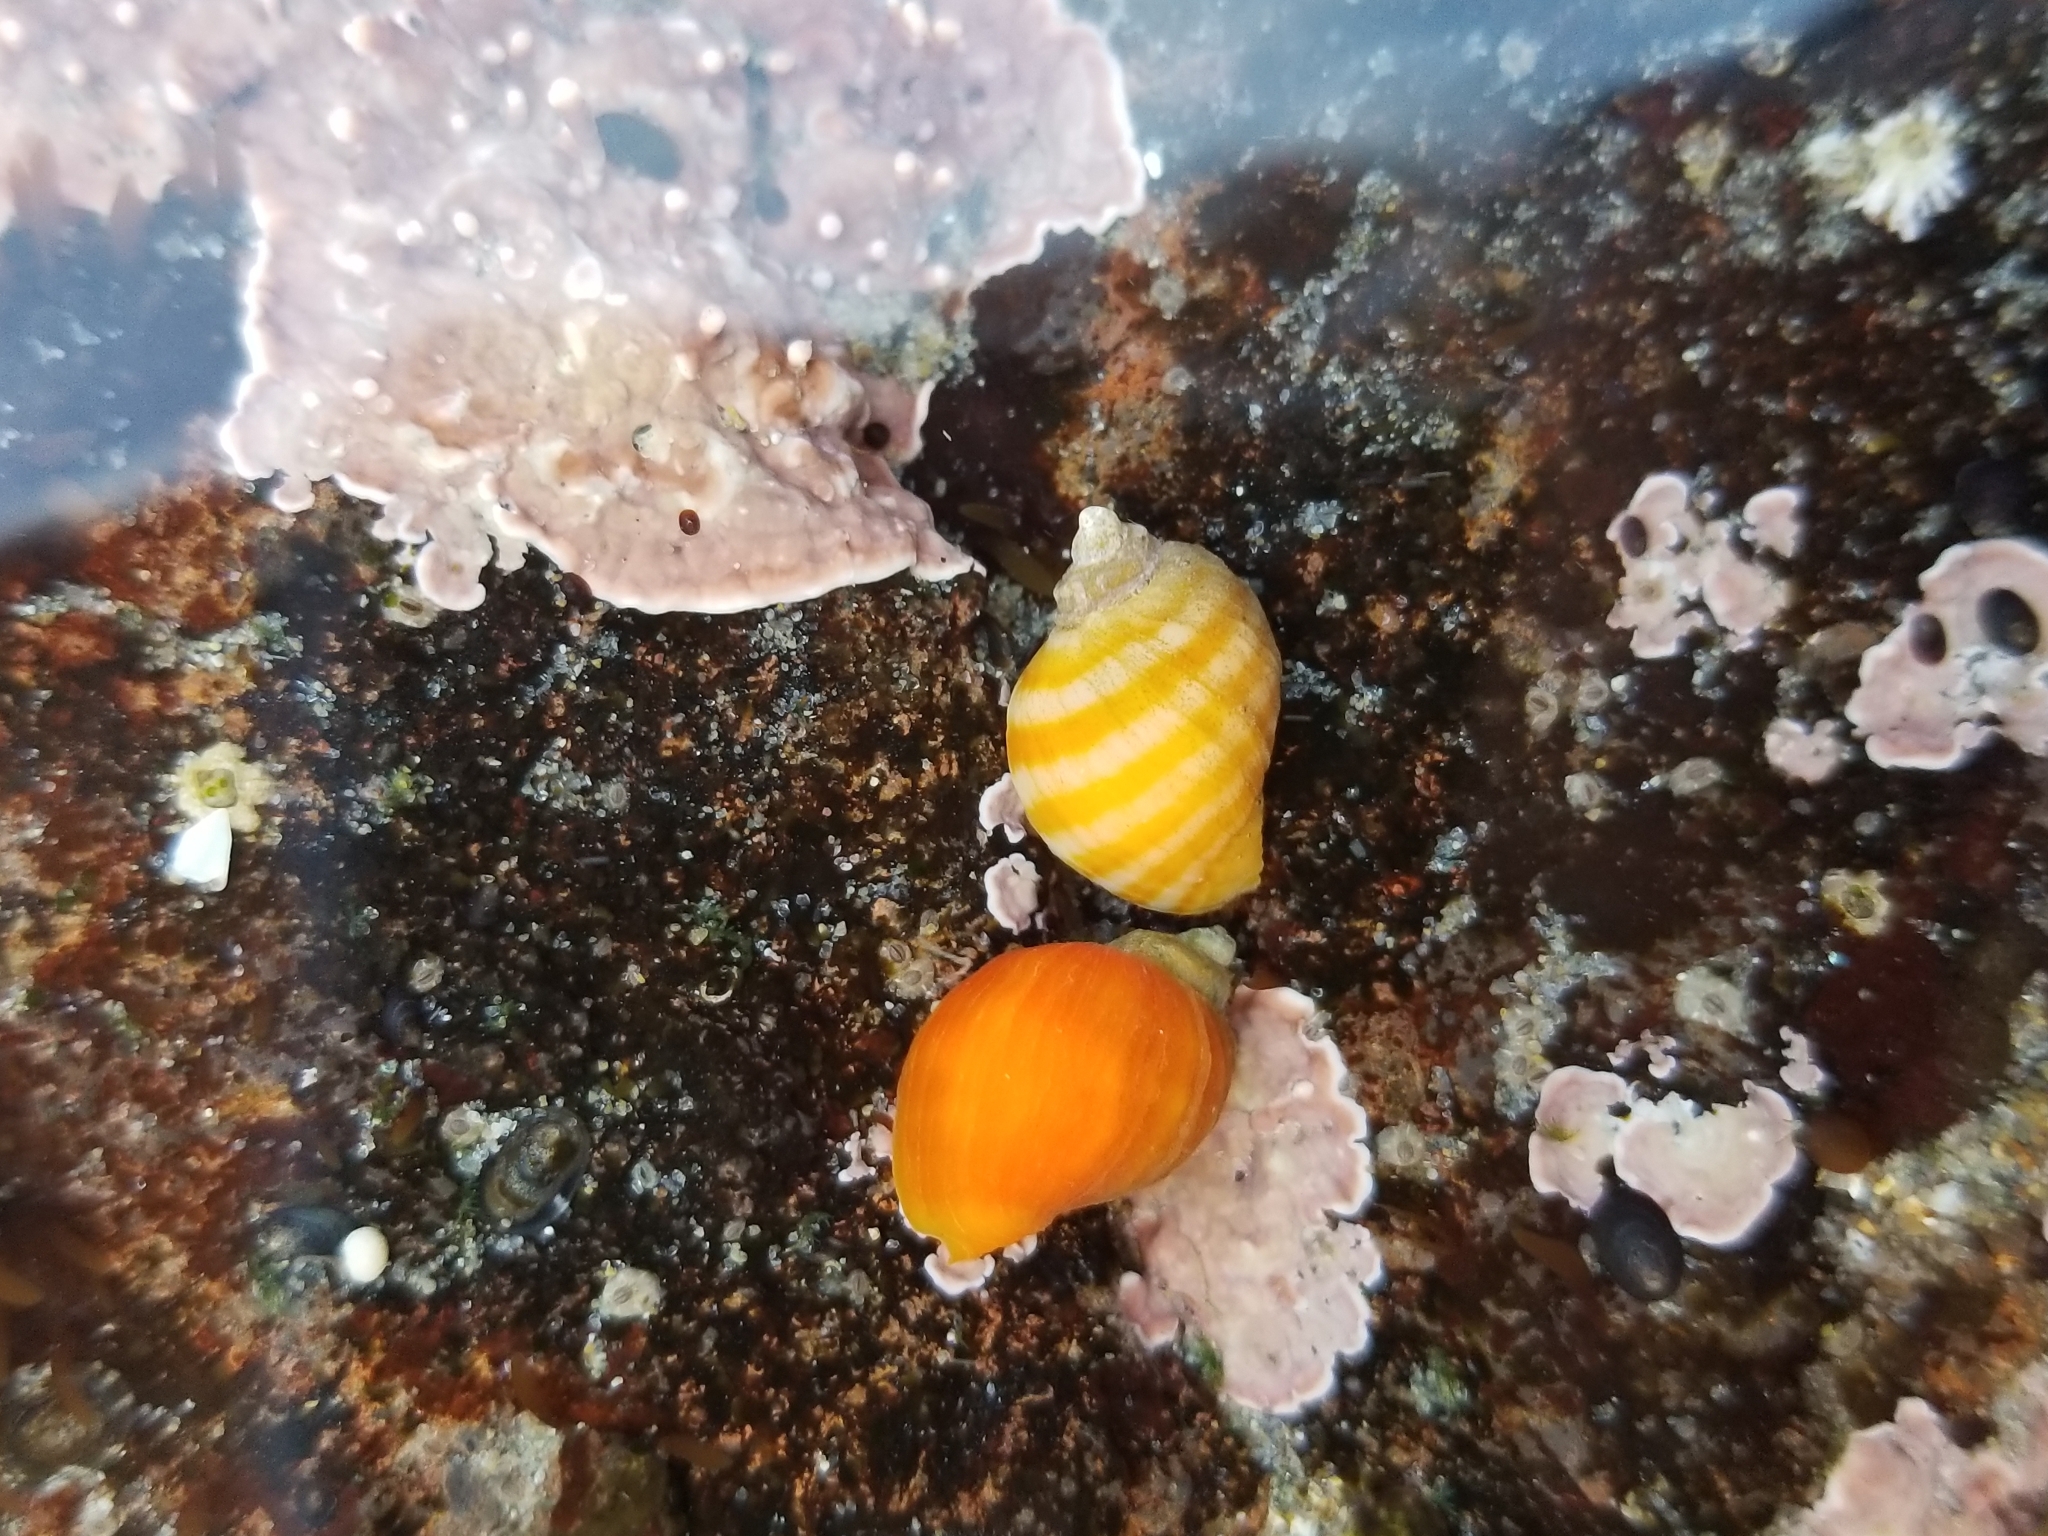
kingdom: Animalia
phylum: Mollusca
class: Gastropoda
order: Neogastropoda
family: Muricidae
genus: Nucella
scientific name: Nucella ostrina
